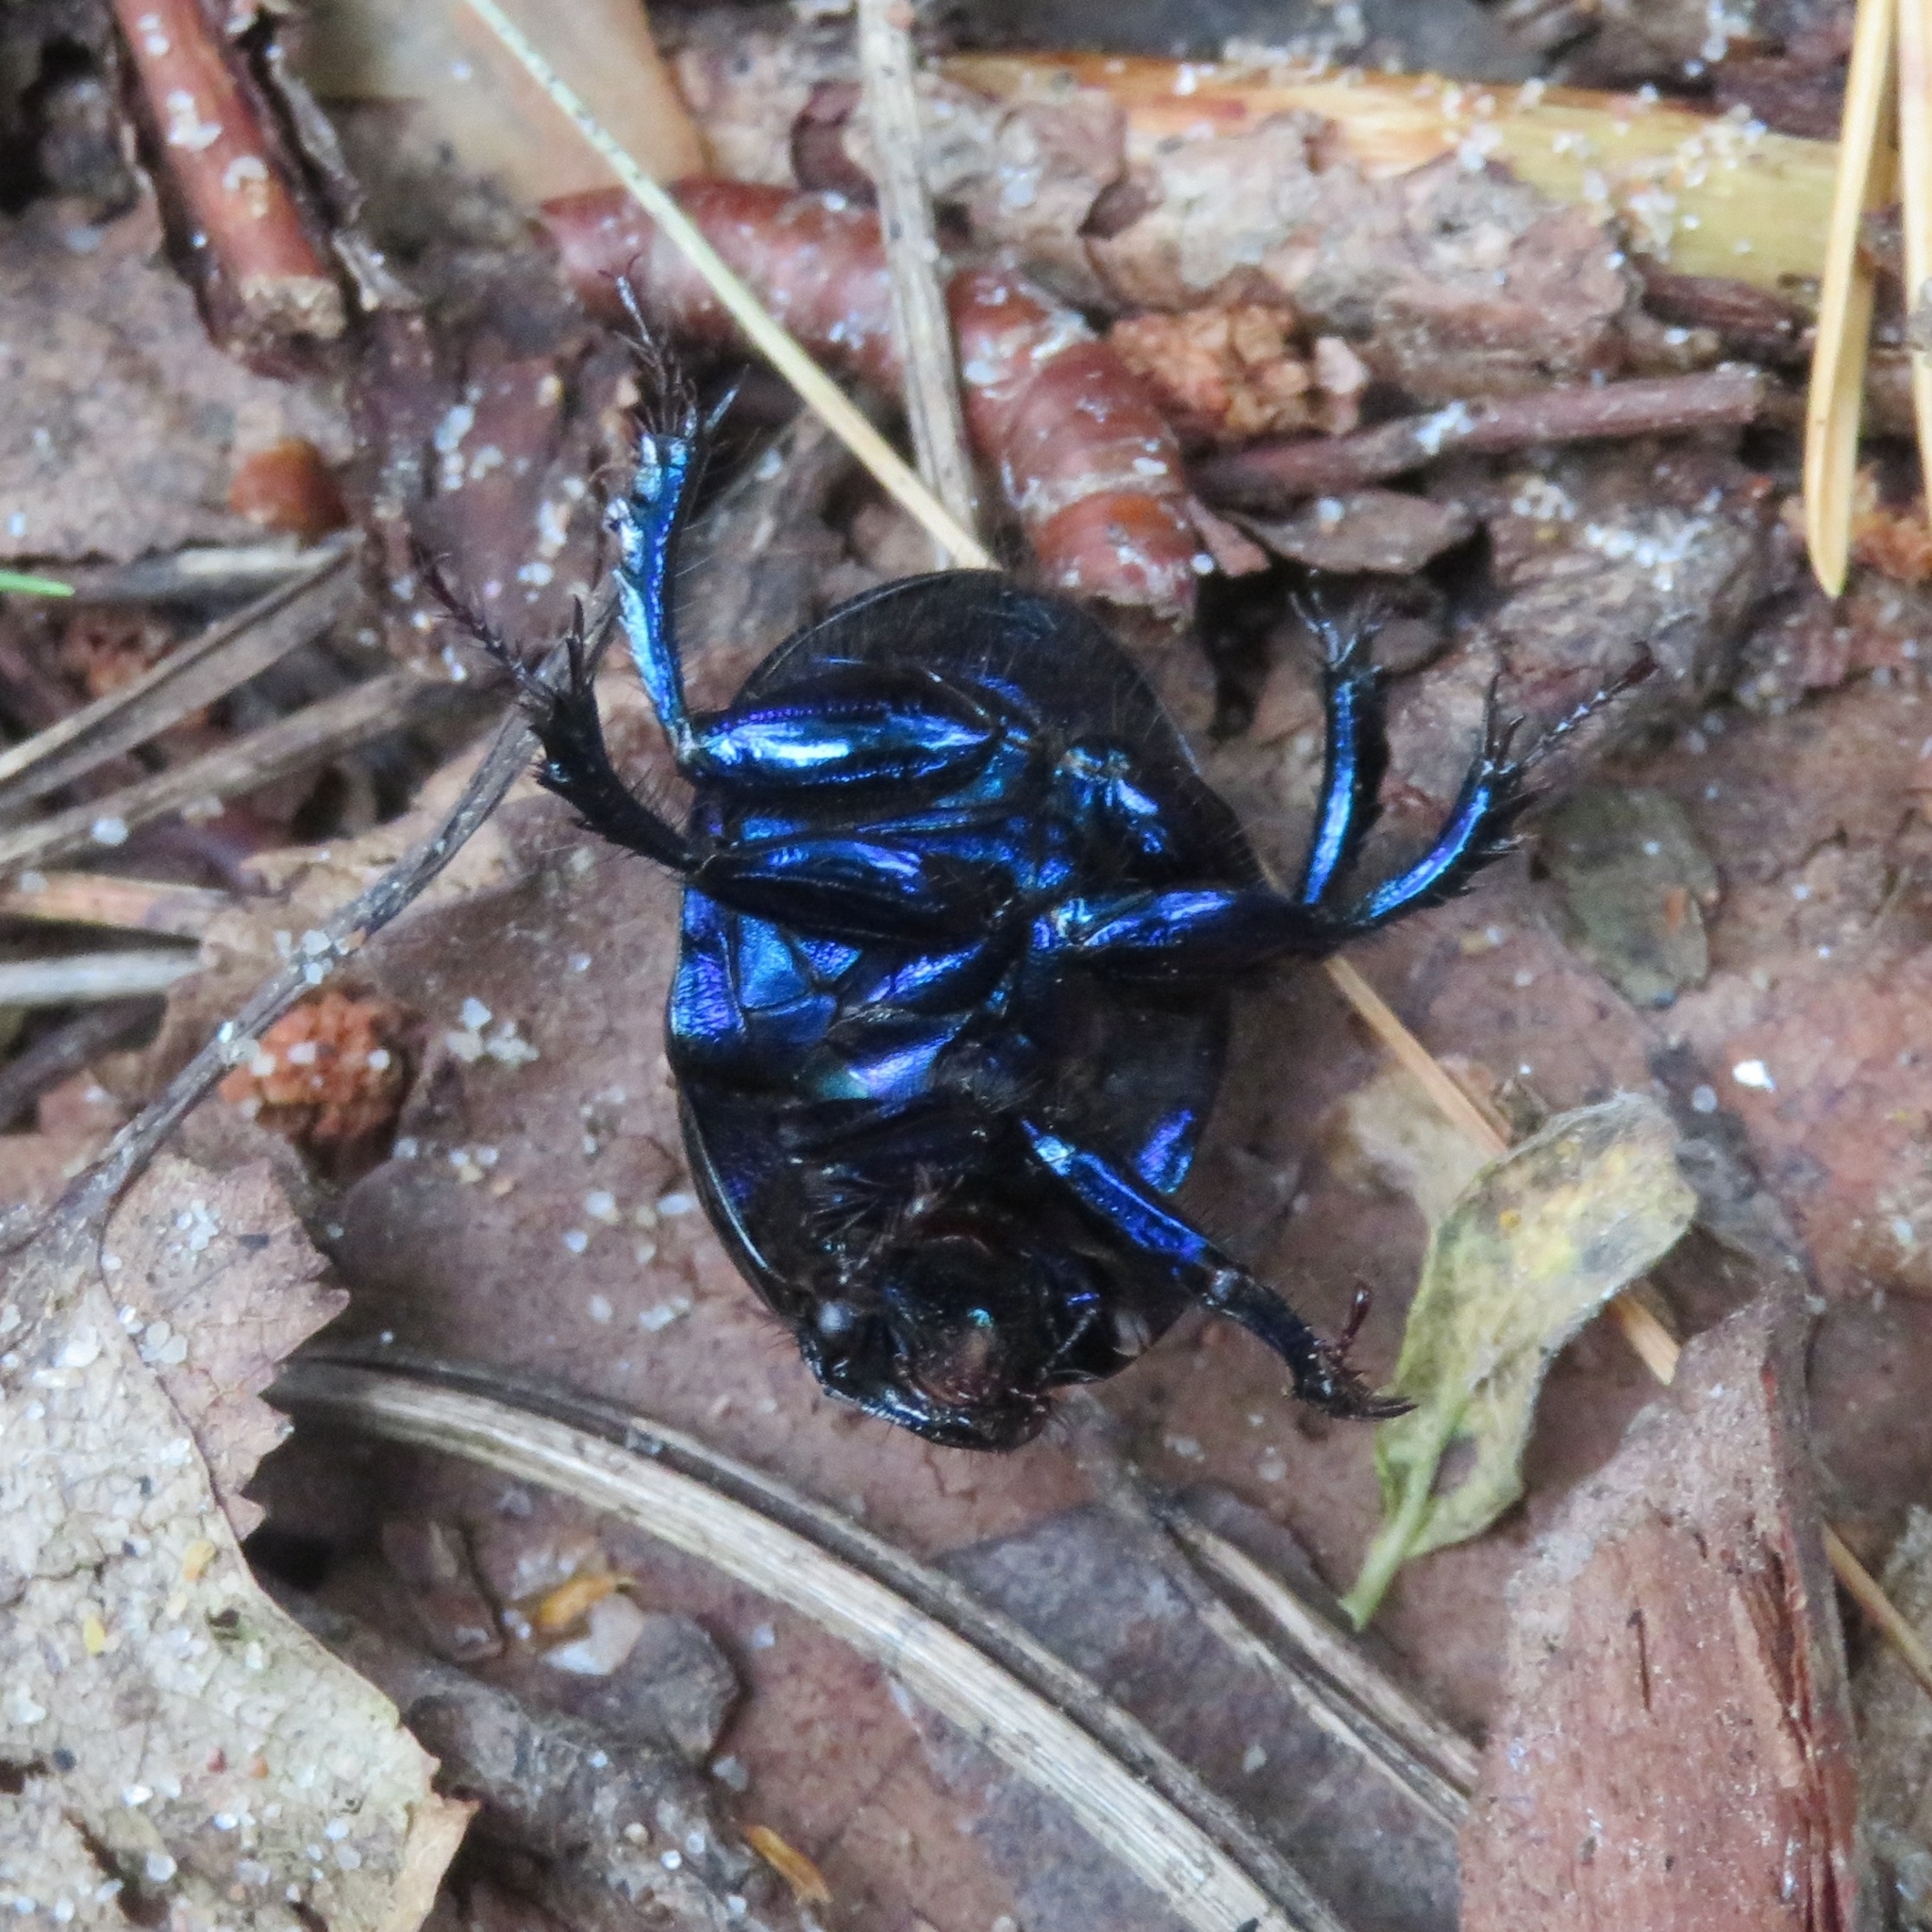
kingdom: Animalia
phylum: Arthropoda
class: Insecta
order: Coleoptera
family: Geotrupidae
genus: Anoplotrupes
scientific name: Anoplotrupes stercorosus
